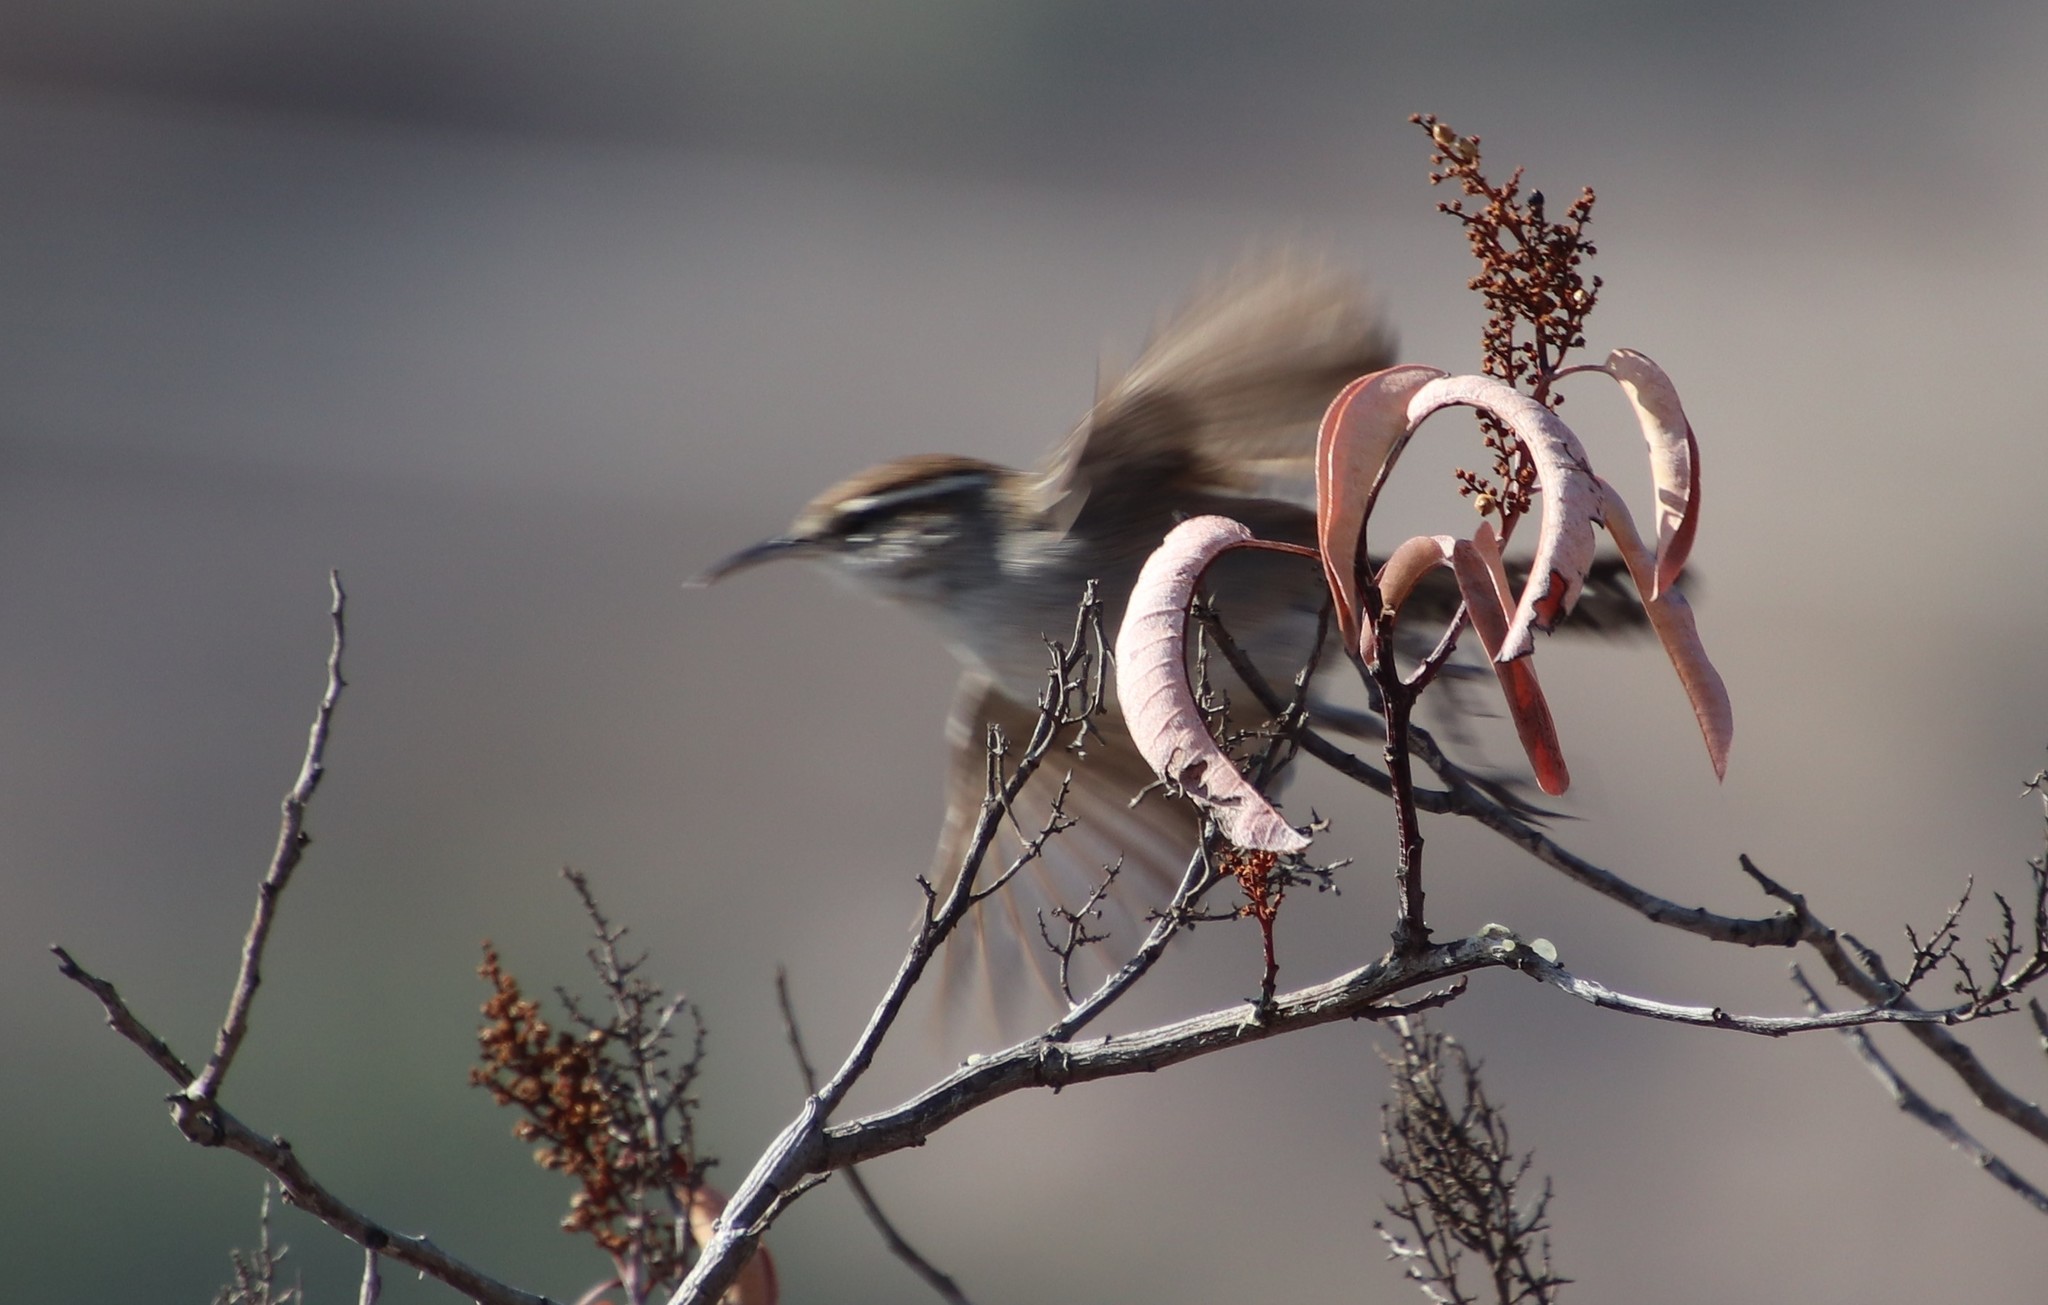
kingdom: Animalia
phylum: Chordata
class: Aves
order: Passeriformes
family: Troglodytidae
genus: Thryomanes
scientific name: Thryomanes bewickii
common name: Bewick's wren
